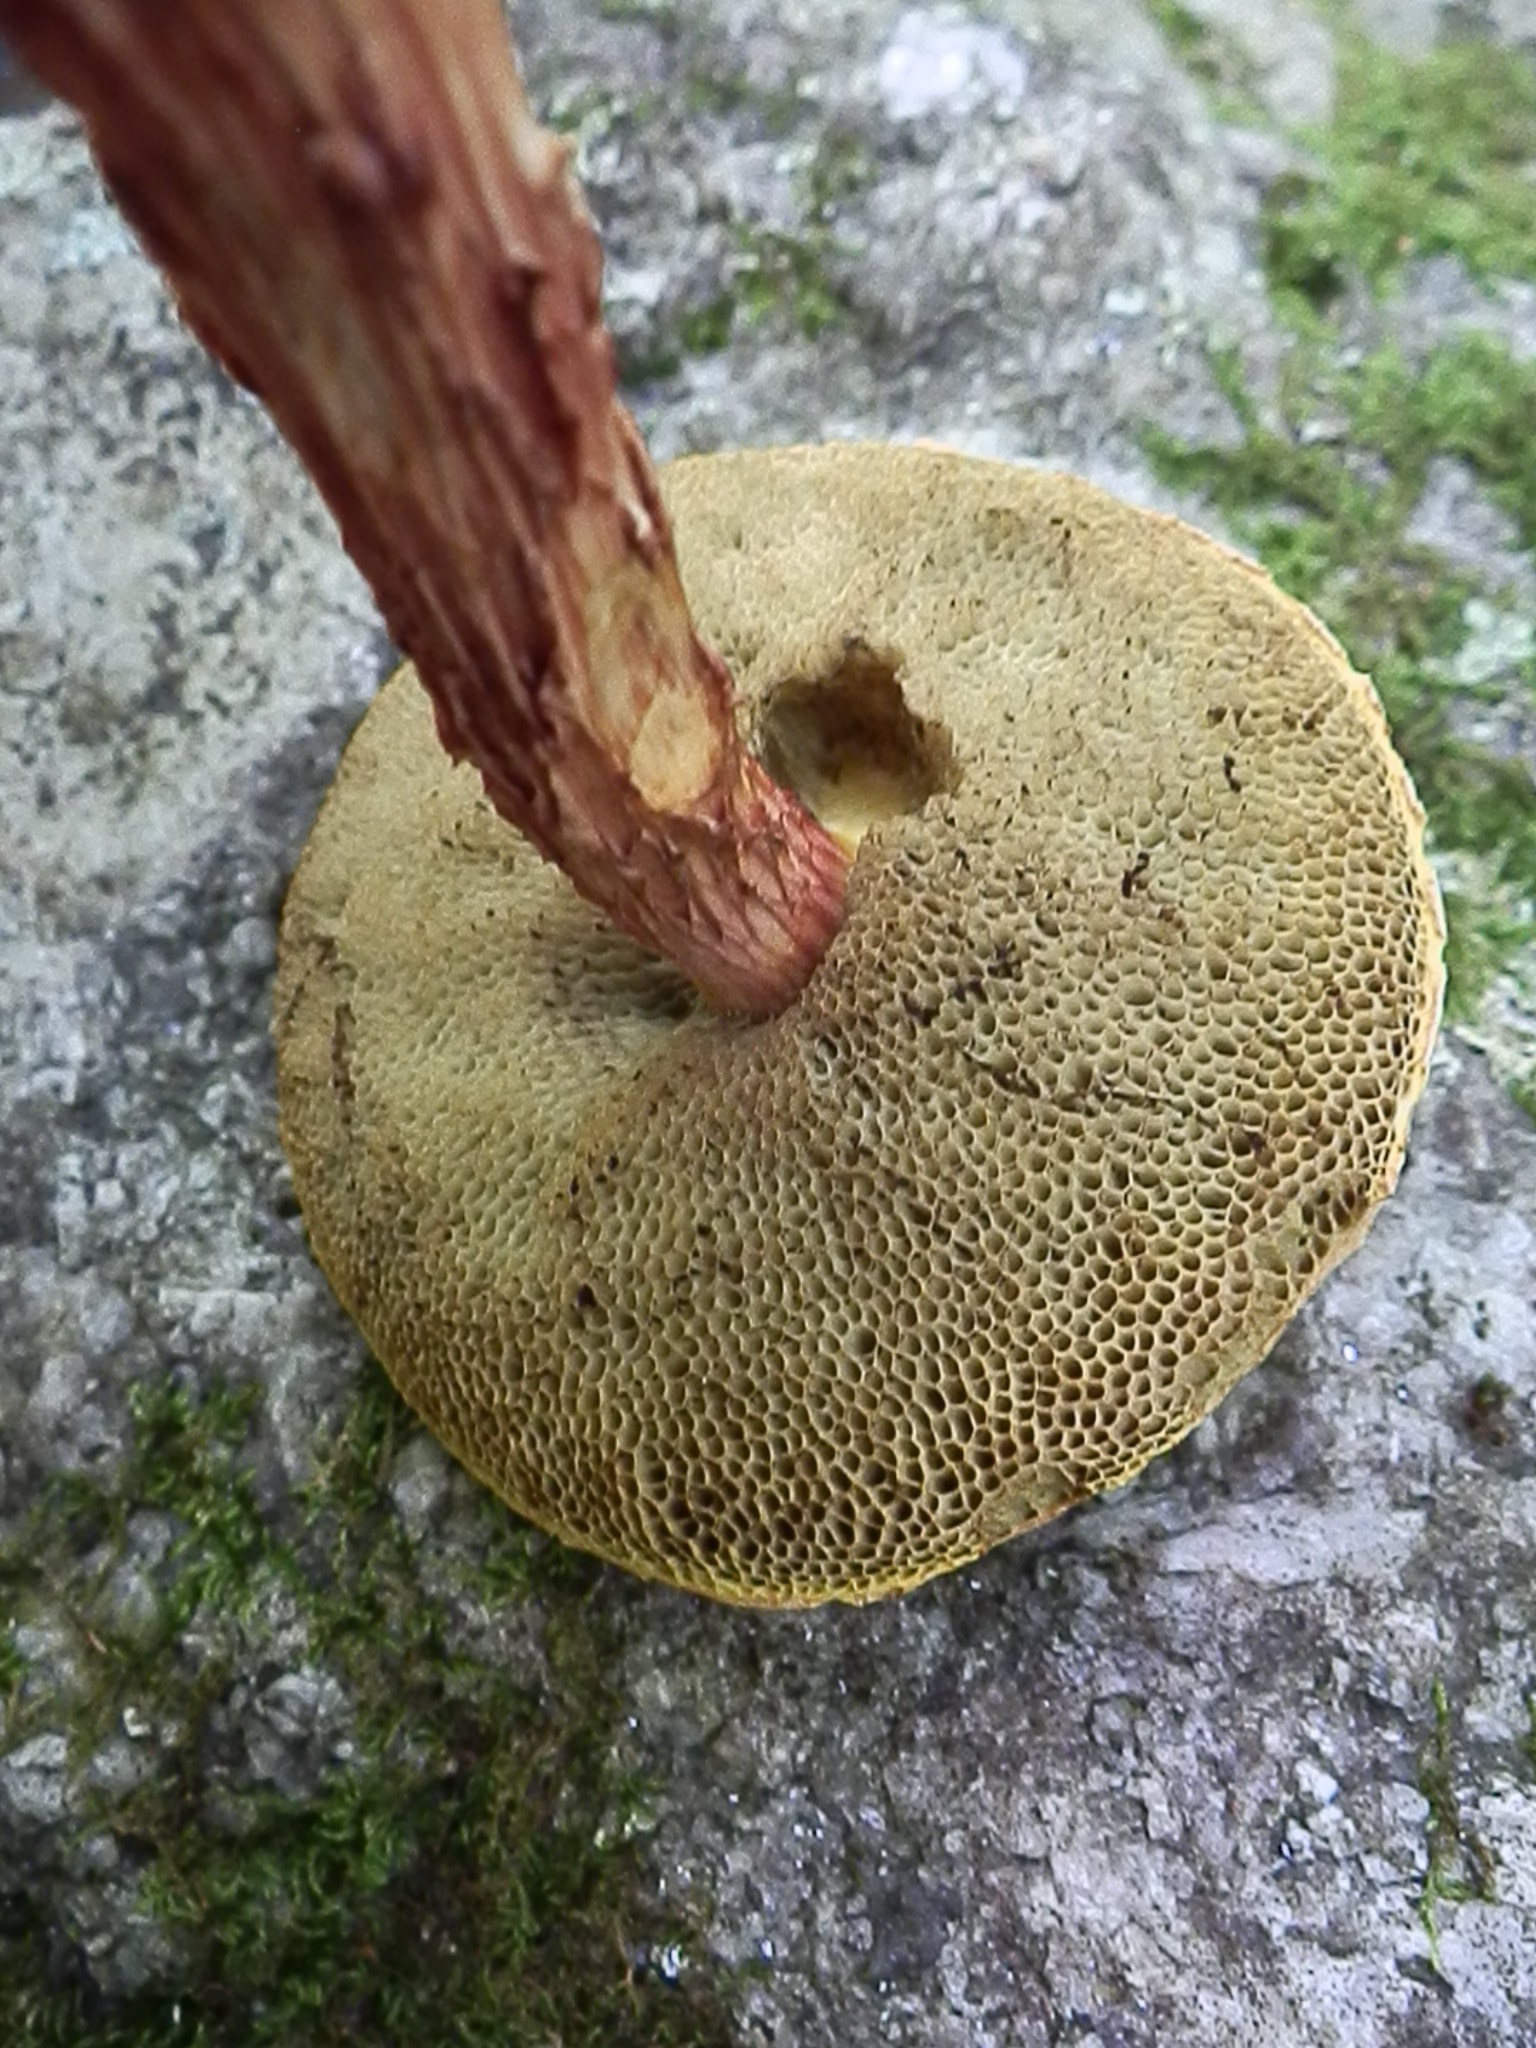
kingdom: Fungi
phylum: Basidiomycota
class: Agaricomycetes
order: Boletales
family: Boletaceae
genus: Aureoboletus
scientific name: Aureoboletus russellii
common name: Russell's bolete
